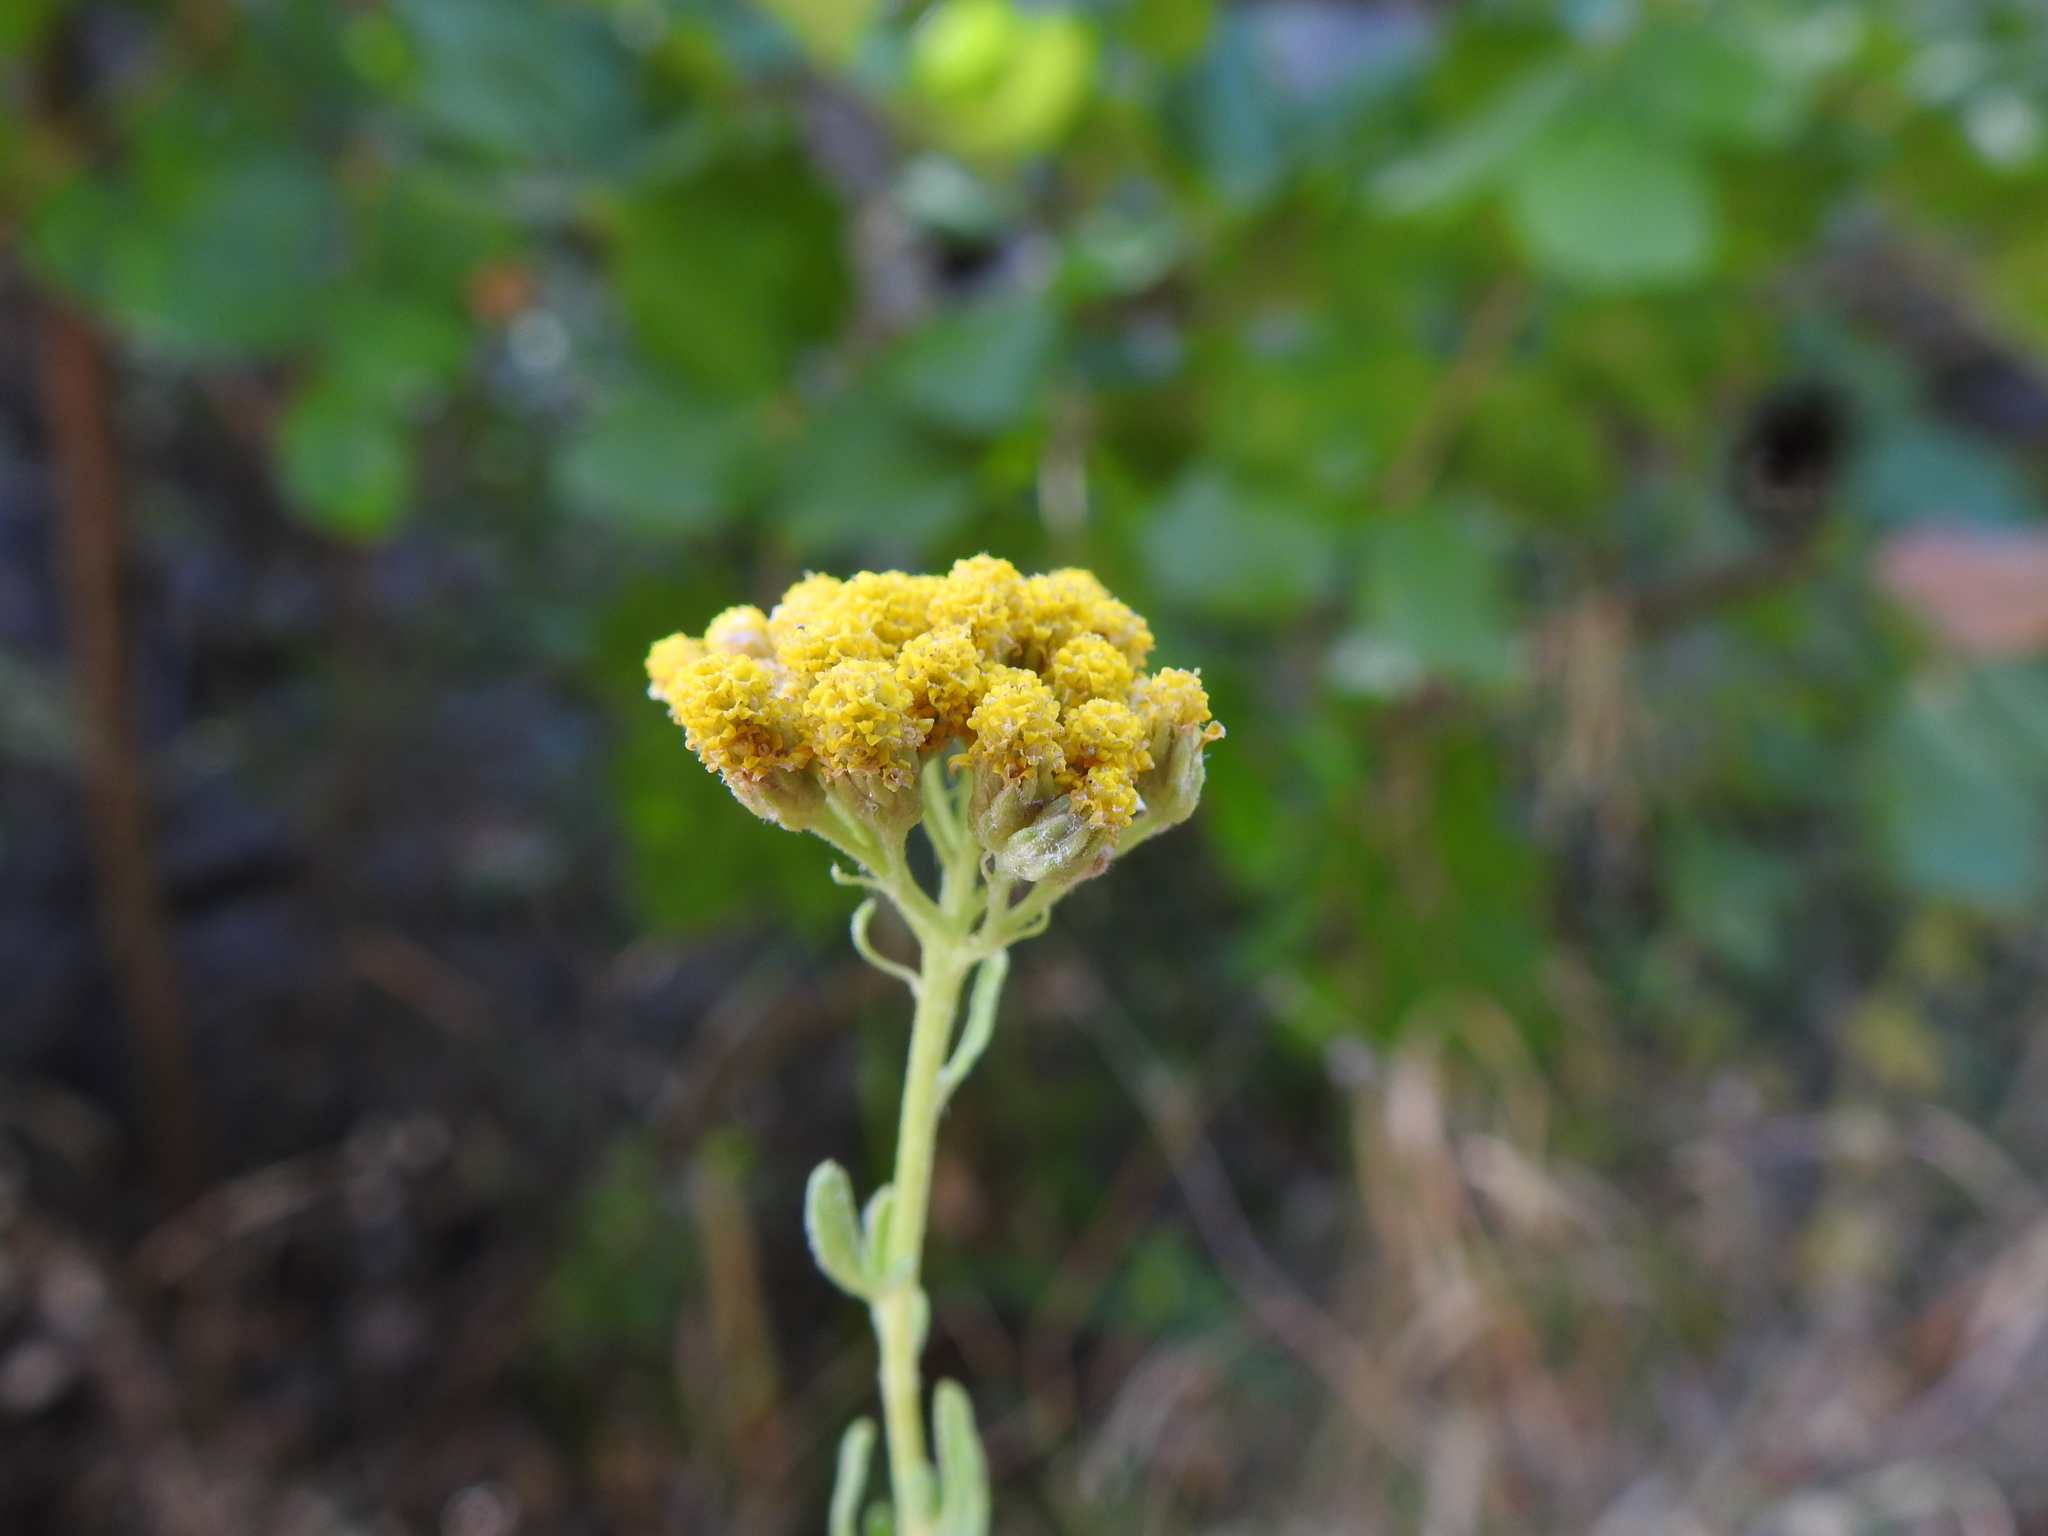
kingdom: Plantae
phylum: Tracheophyta
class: Magnoliopsida
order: Asterales
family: Asteraceae
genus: Achillea
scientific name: Achillea ageratum
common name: Sweet-nancy
